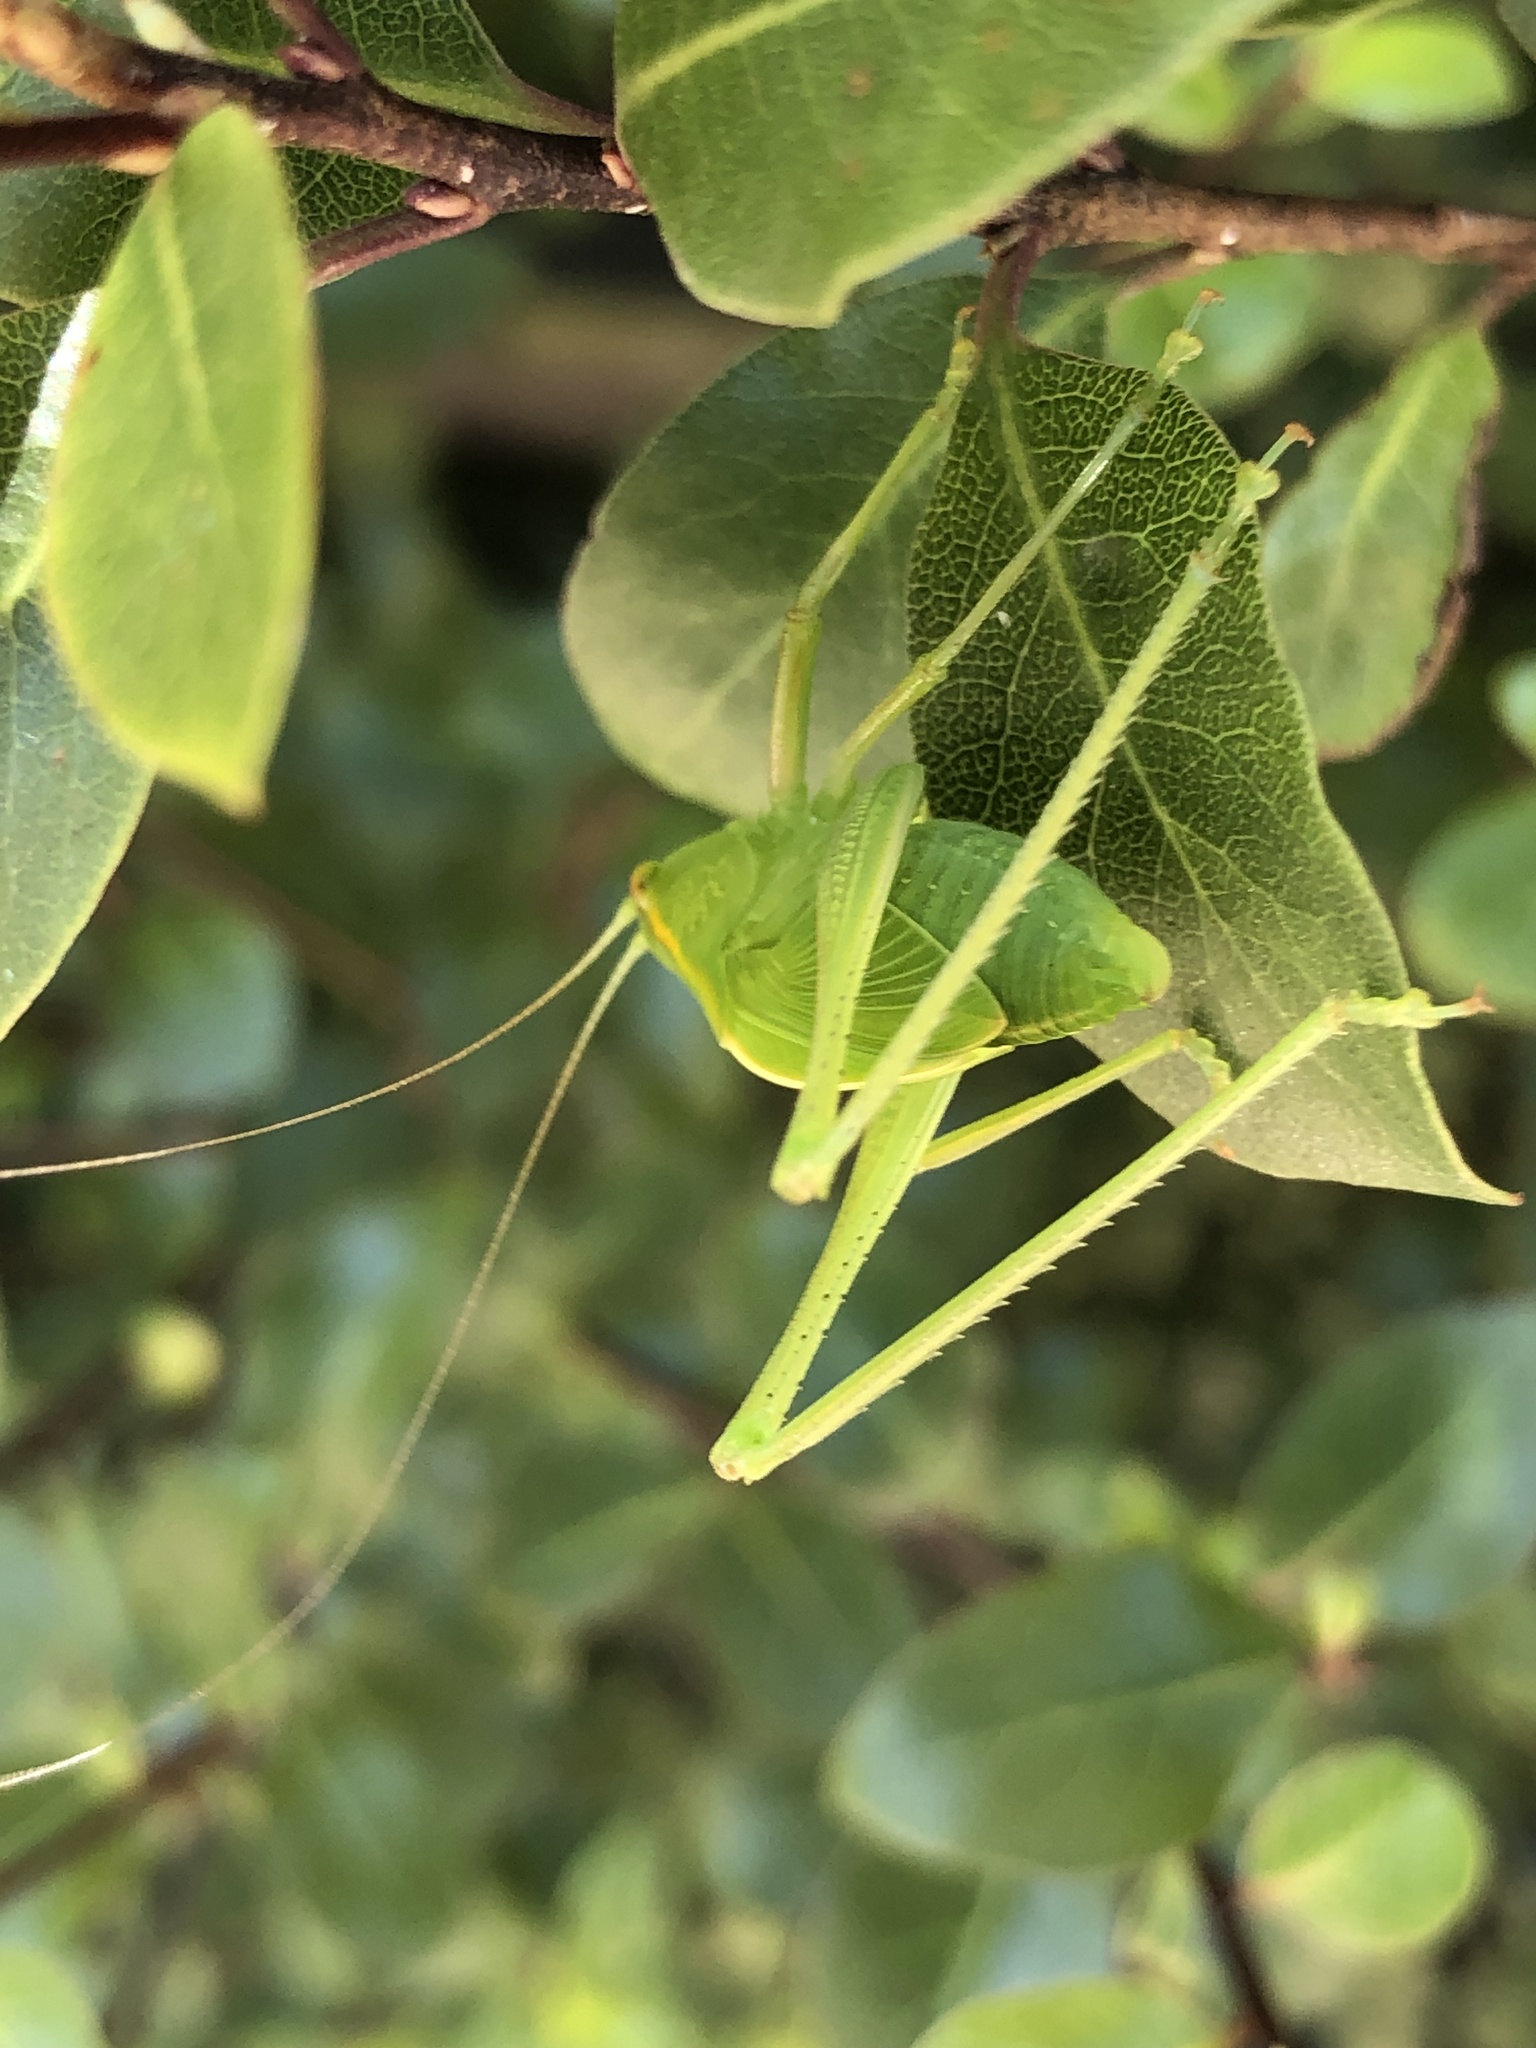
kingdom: Animalia
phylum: Arthropoda
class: Insecta
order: Orthoptera
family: Tettigoniidae
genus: Caedicia
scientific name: Caedicia simplex
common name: Common garden katydid
